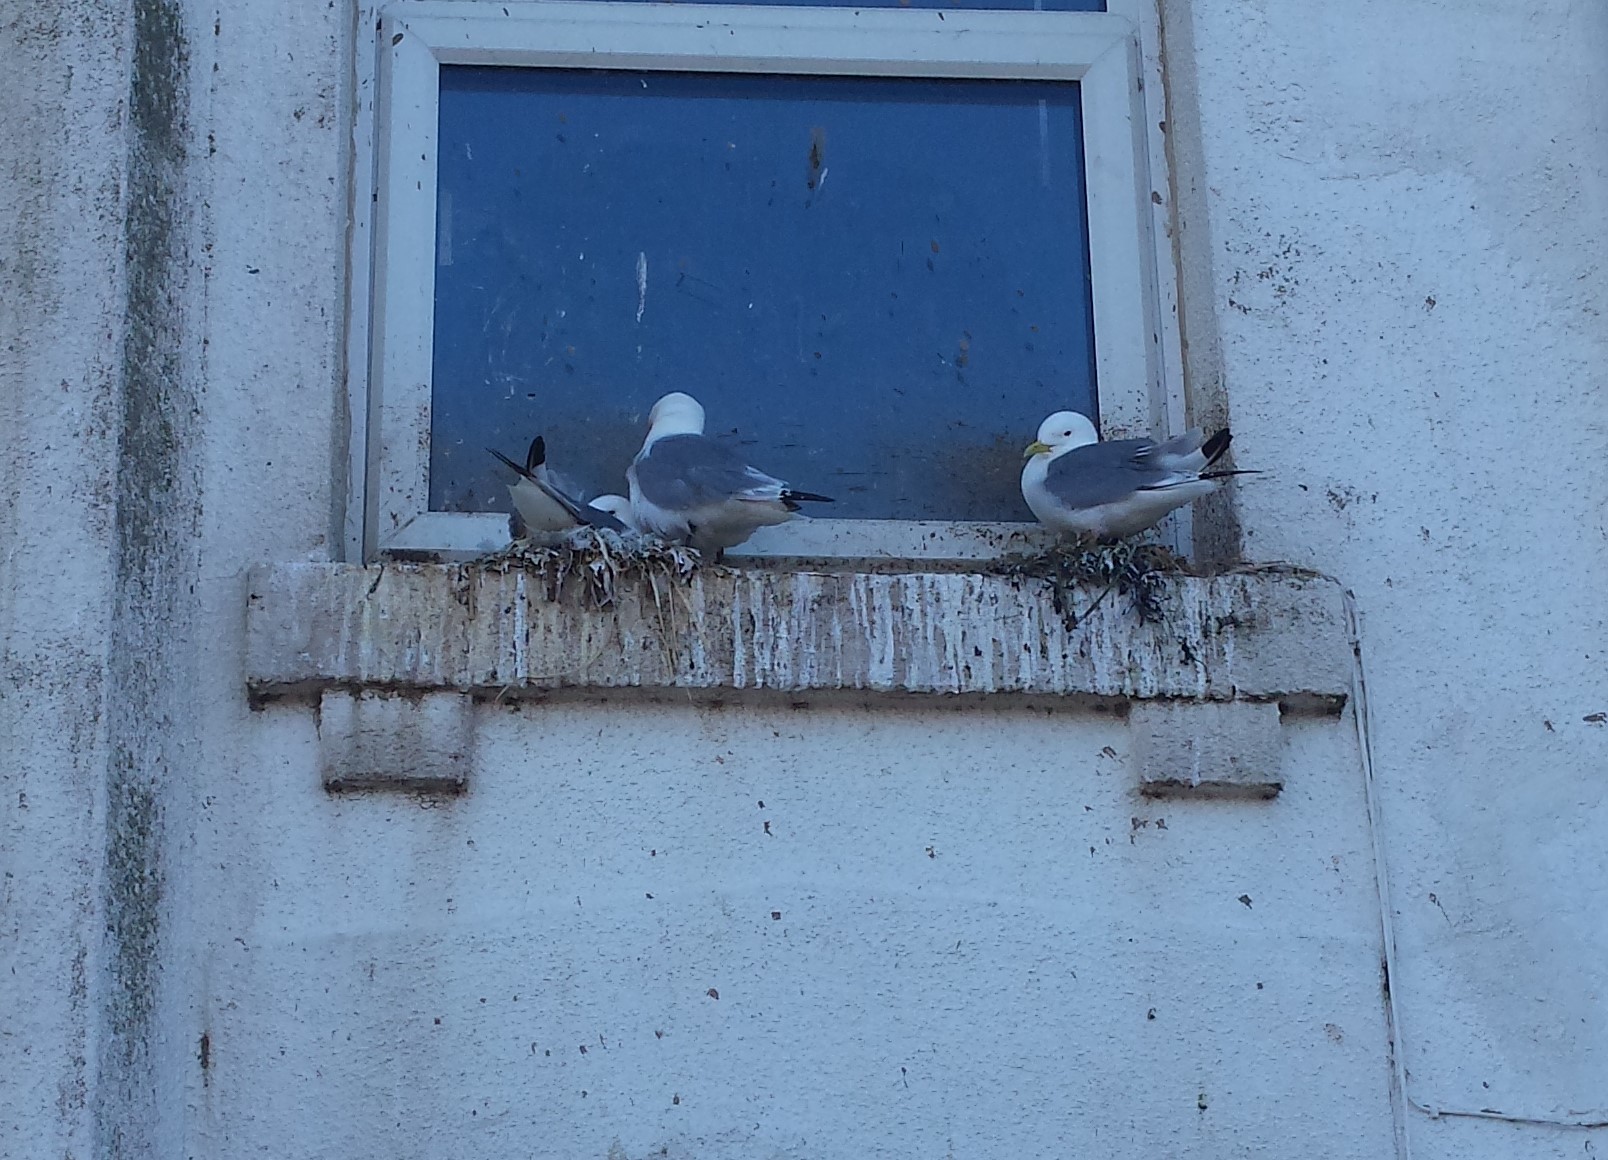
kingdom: Animalia
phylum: Chordata
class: Aves
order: Charadriiformes
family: Laridae
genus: Rissa
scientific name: Rissa tridactyla
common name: Black-legged kittiwake
